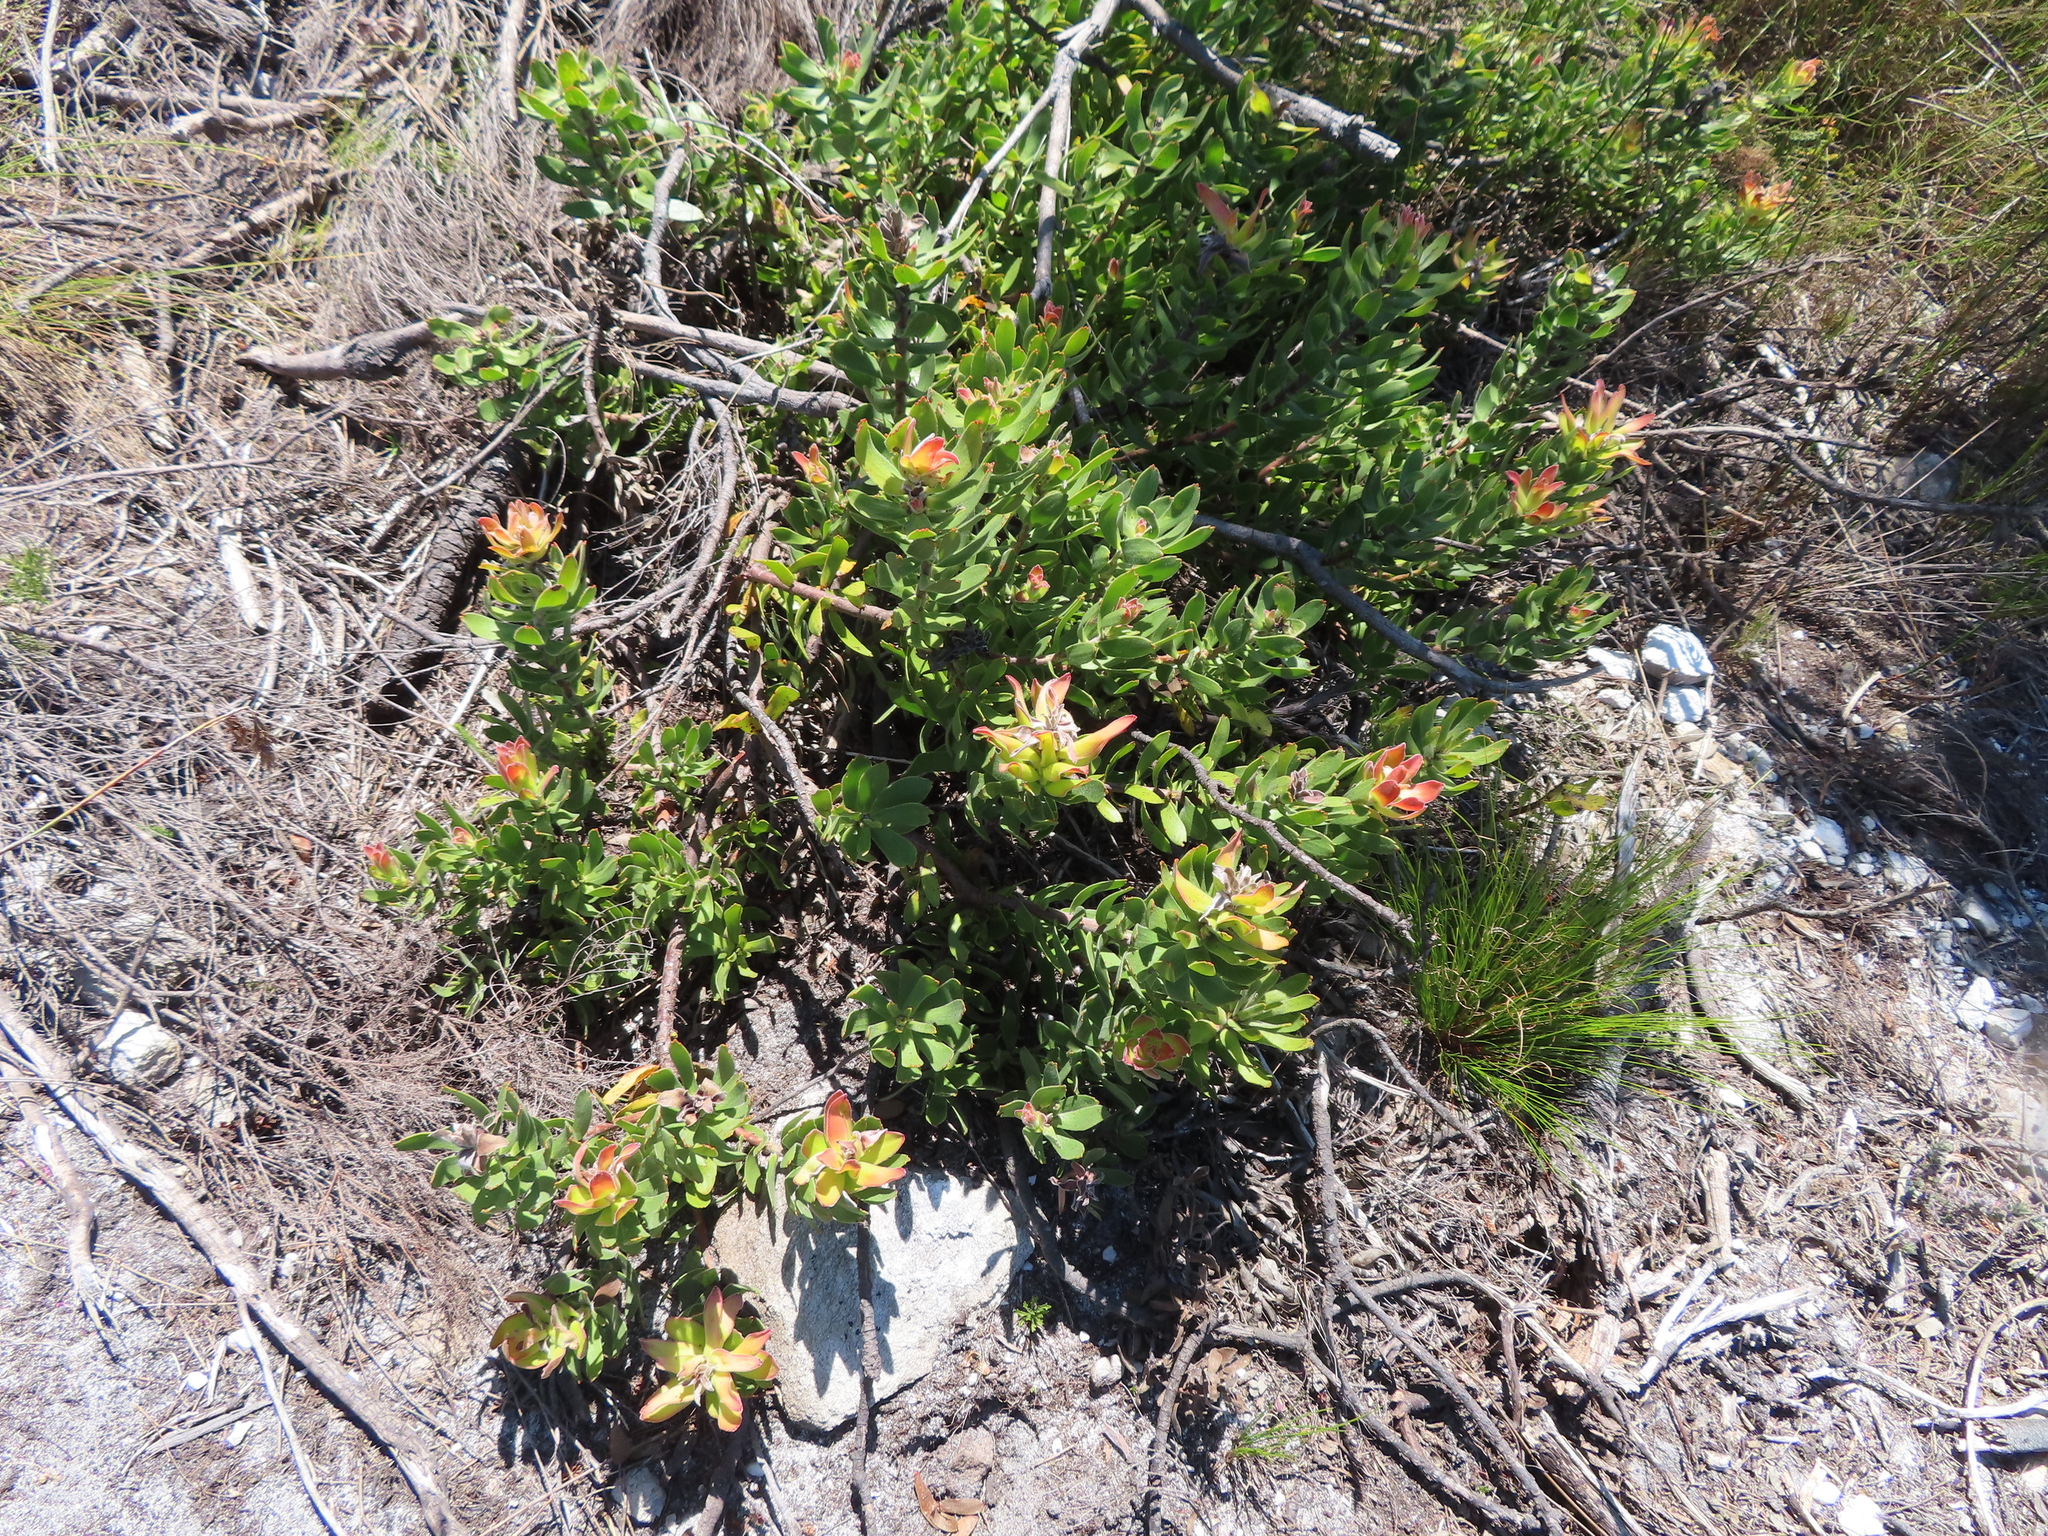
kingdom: Plantae
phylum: Tracheophyta
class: Magnoliopsida
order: Proteales
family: Proteaceae
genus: Mimetes
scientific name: Mimetes cucullatus
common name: Common pagoda
